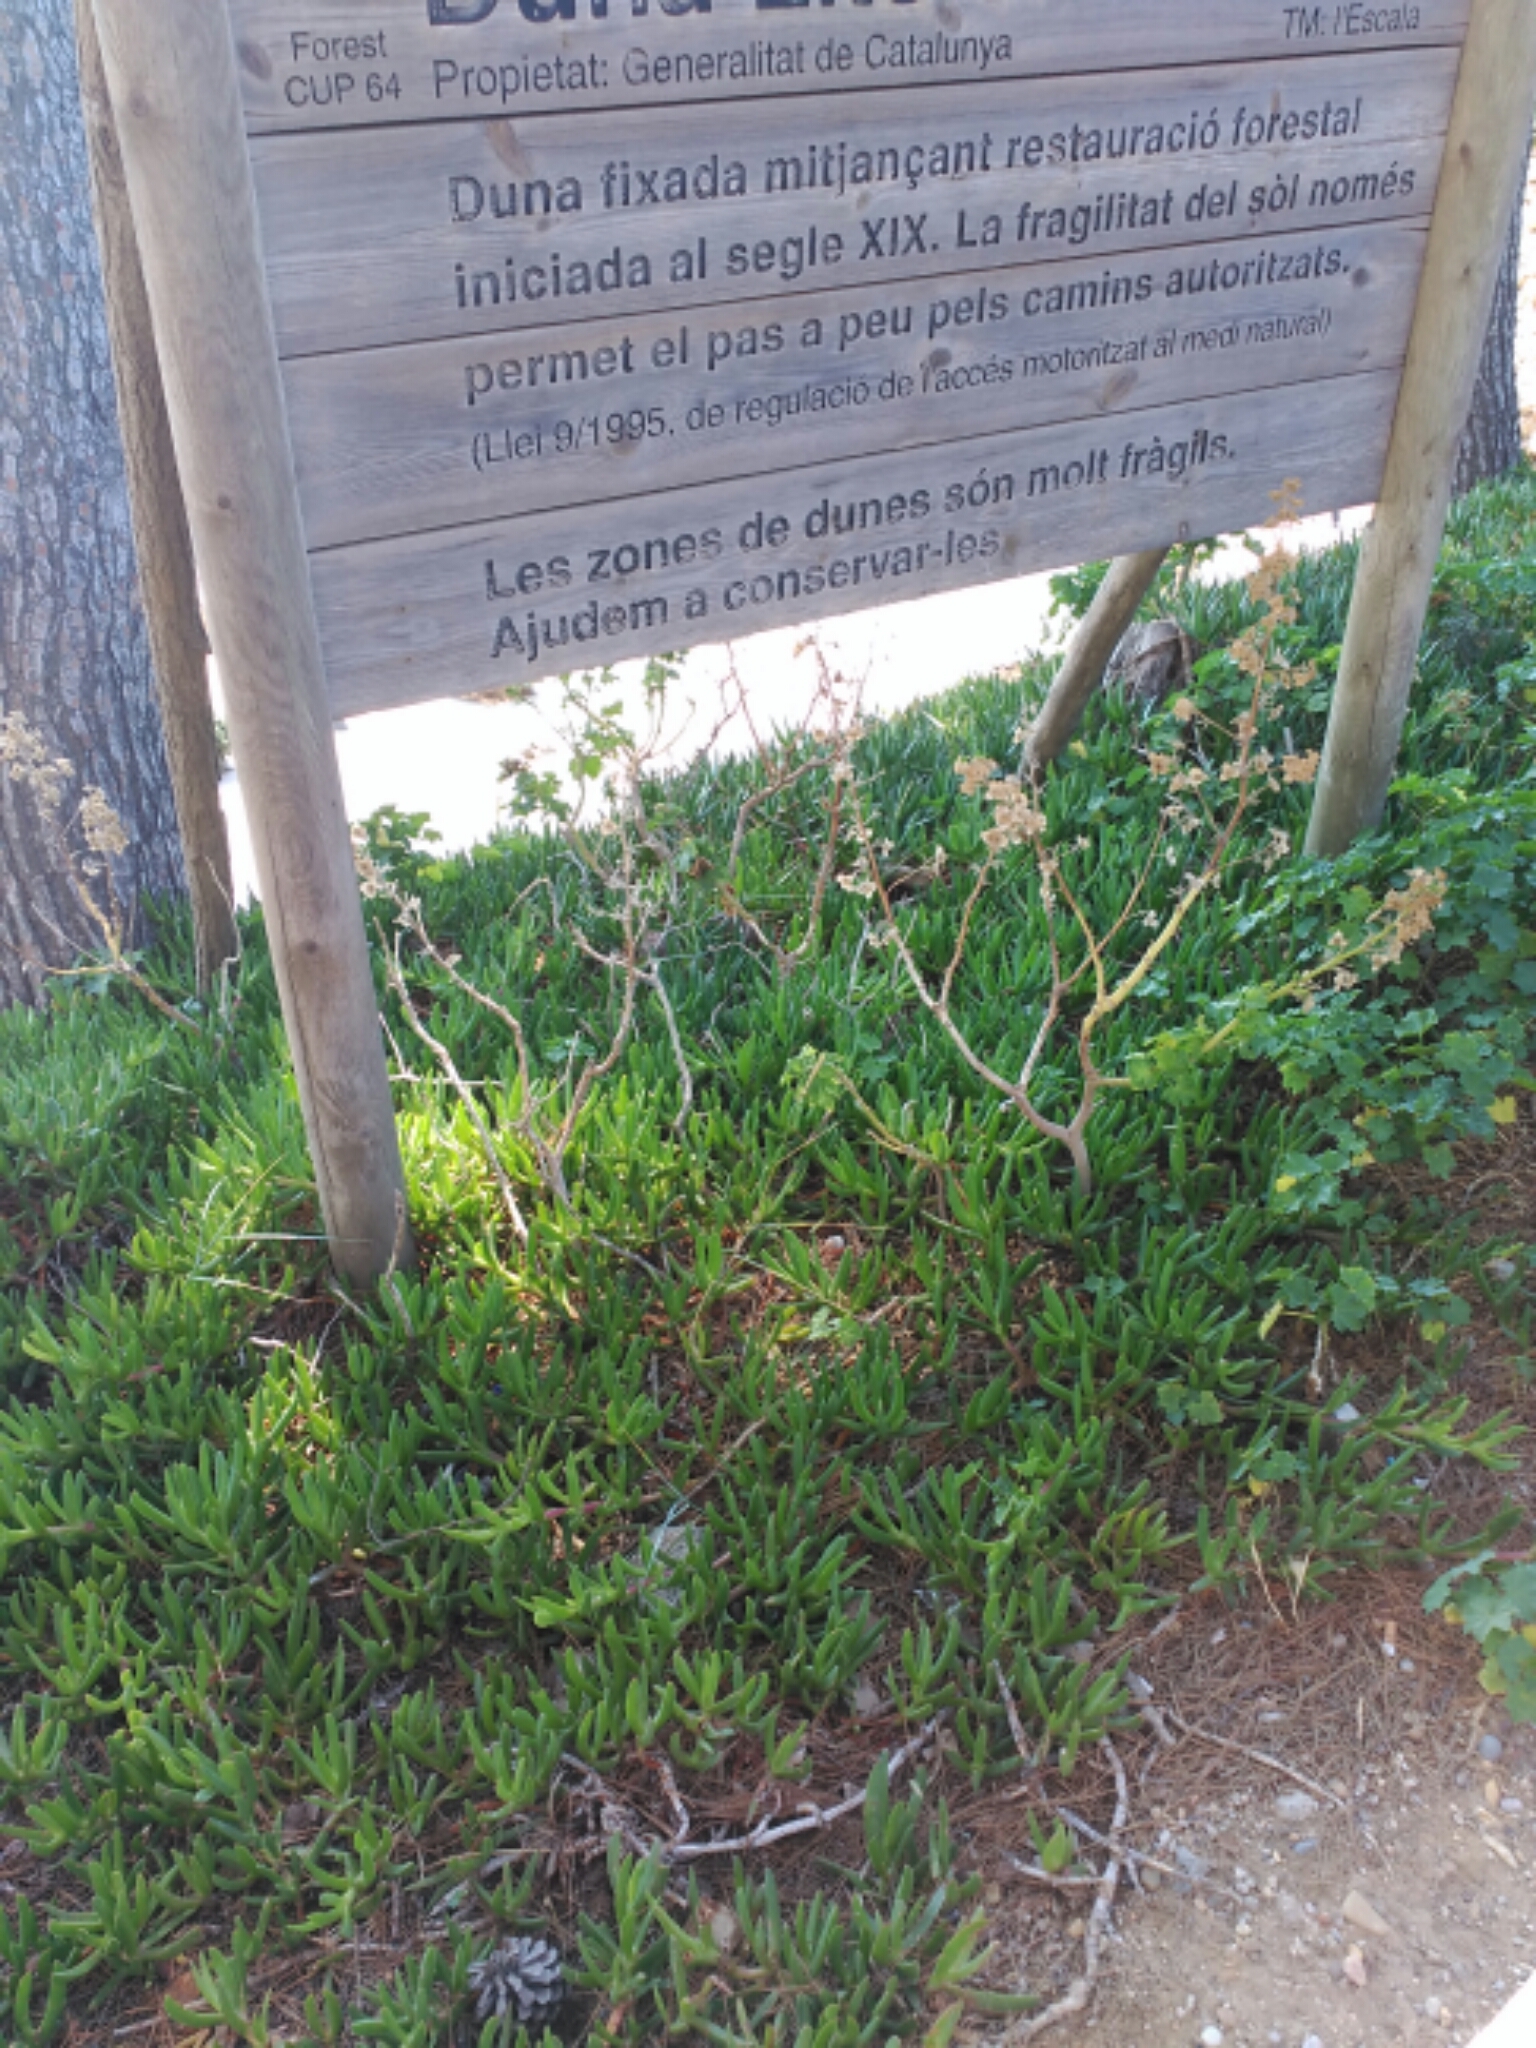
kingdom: Plantae
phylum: Tracheophyta
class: Magnoliopsida
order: Caryophyllales
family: Aizoaceae
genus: Carpobrotus
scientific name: Carpobrotus acinaciformis
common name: Sally-my-handsome
